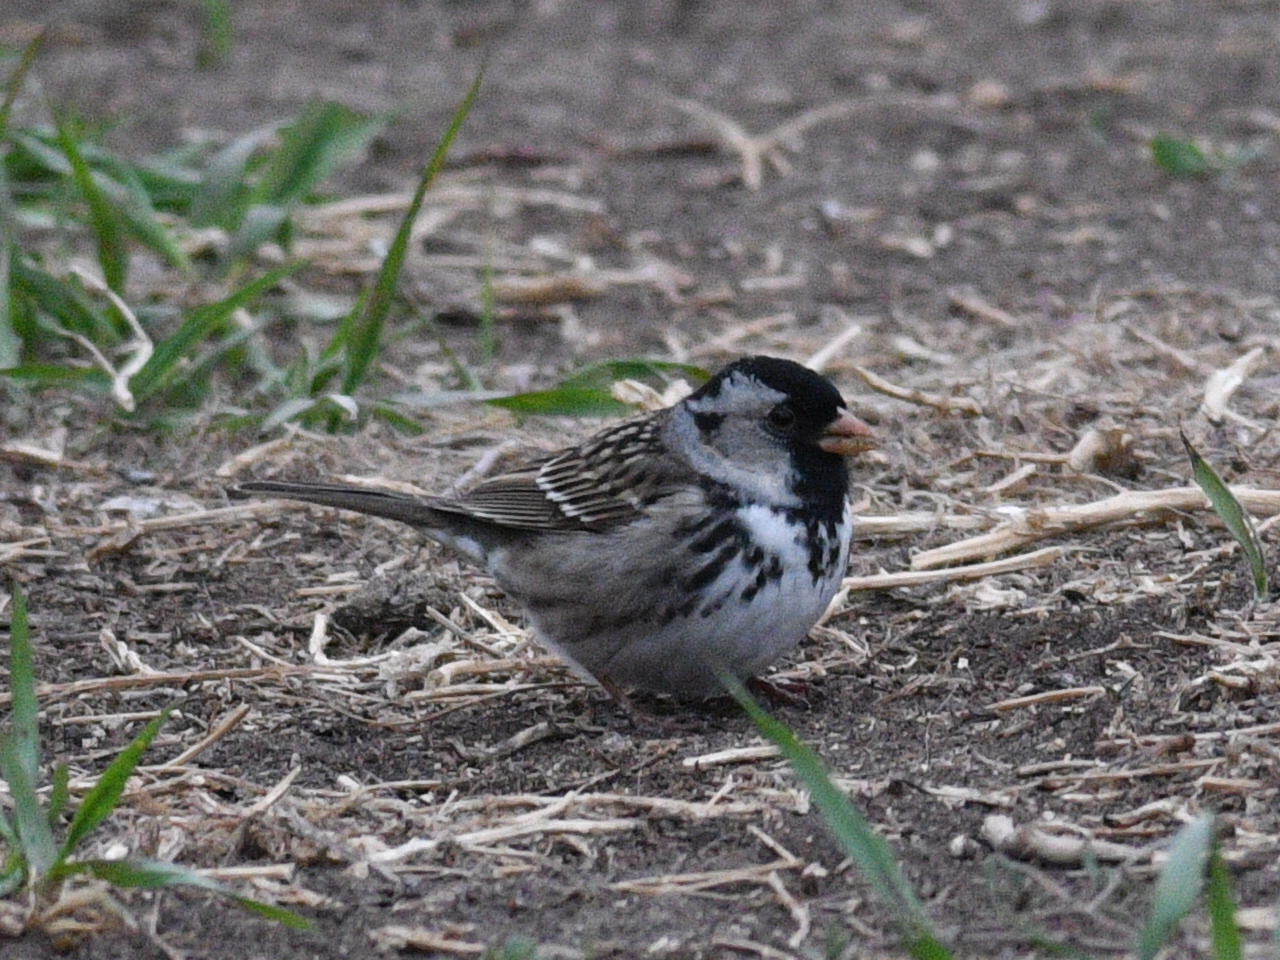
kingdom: Animalia
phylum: Chordata
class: Aves
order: Passeriformes
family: Passerellidae
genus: Zonotrichia
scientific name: Zonotrichia querula
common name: Harris's sparrow
